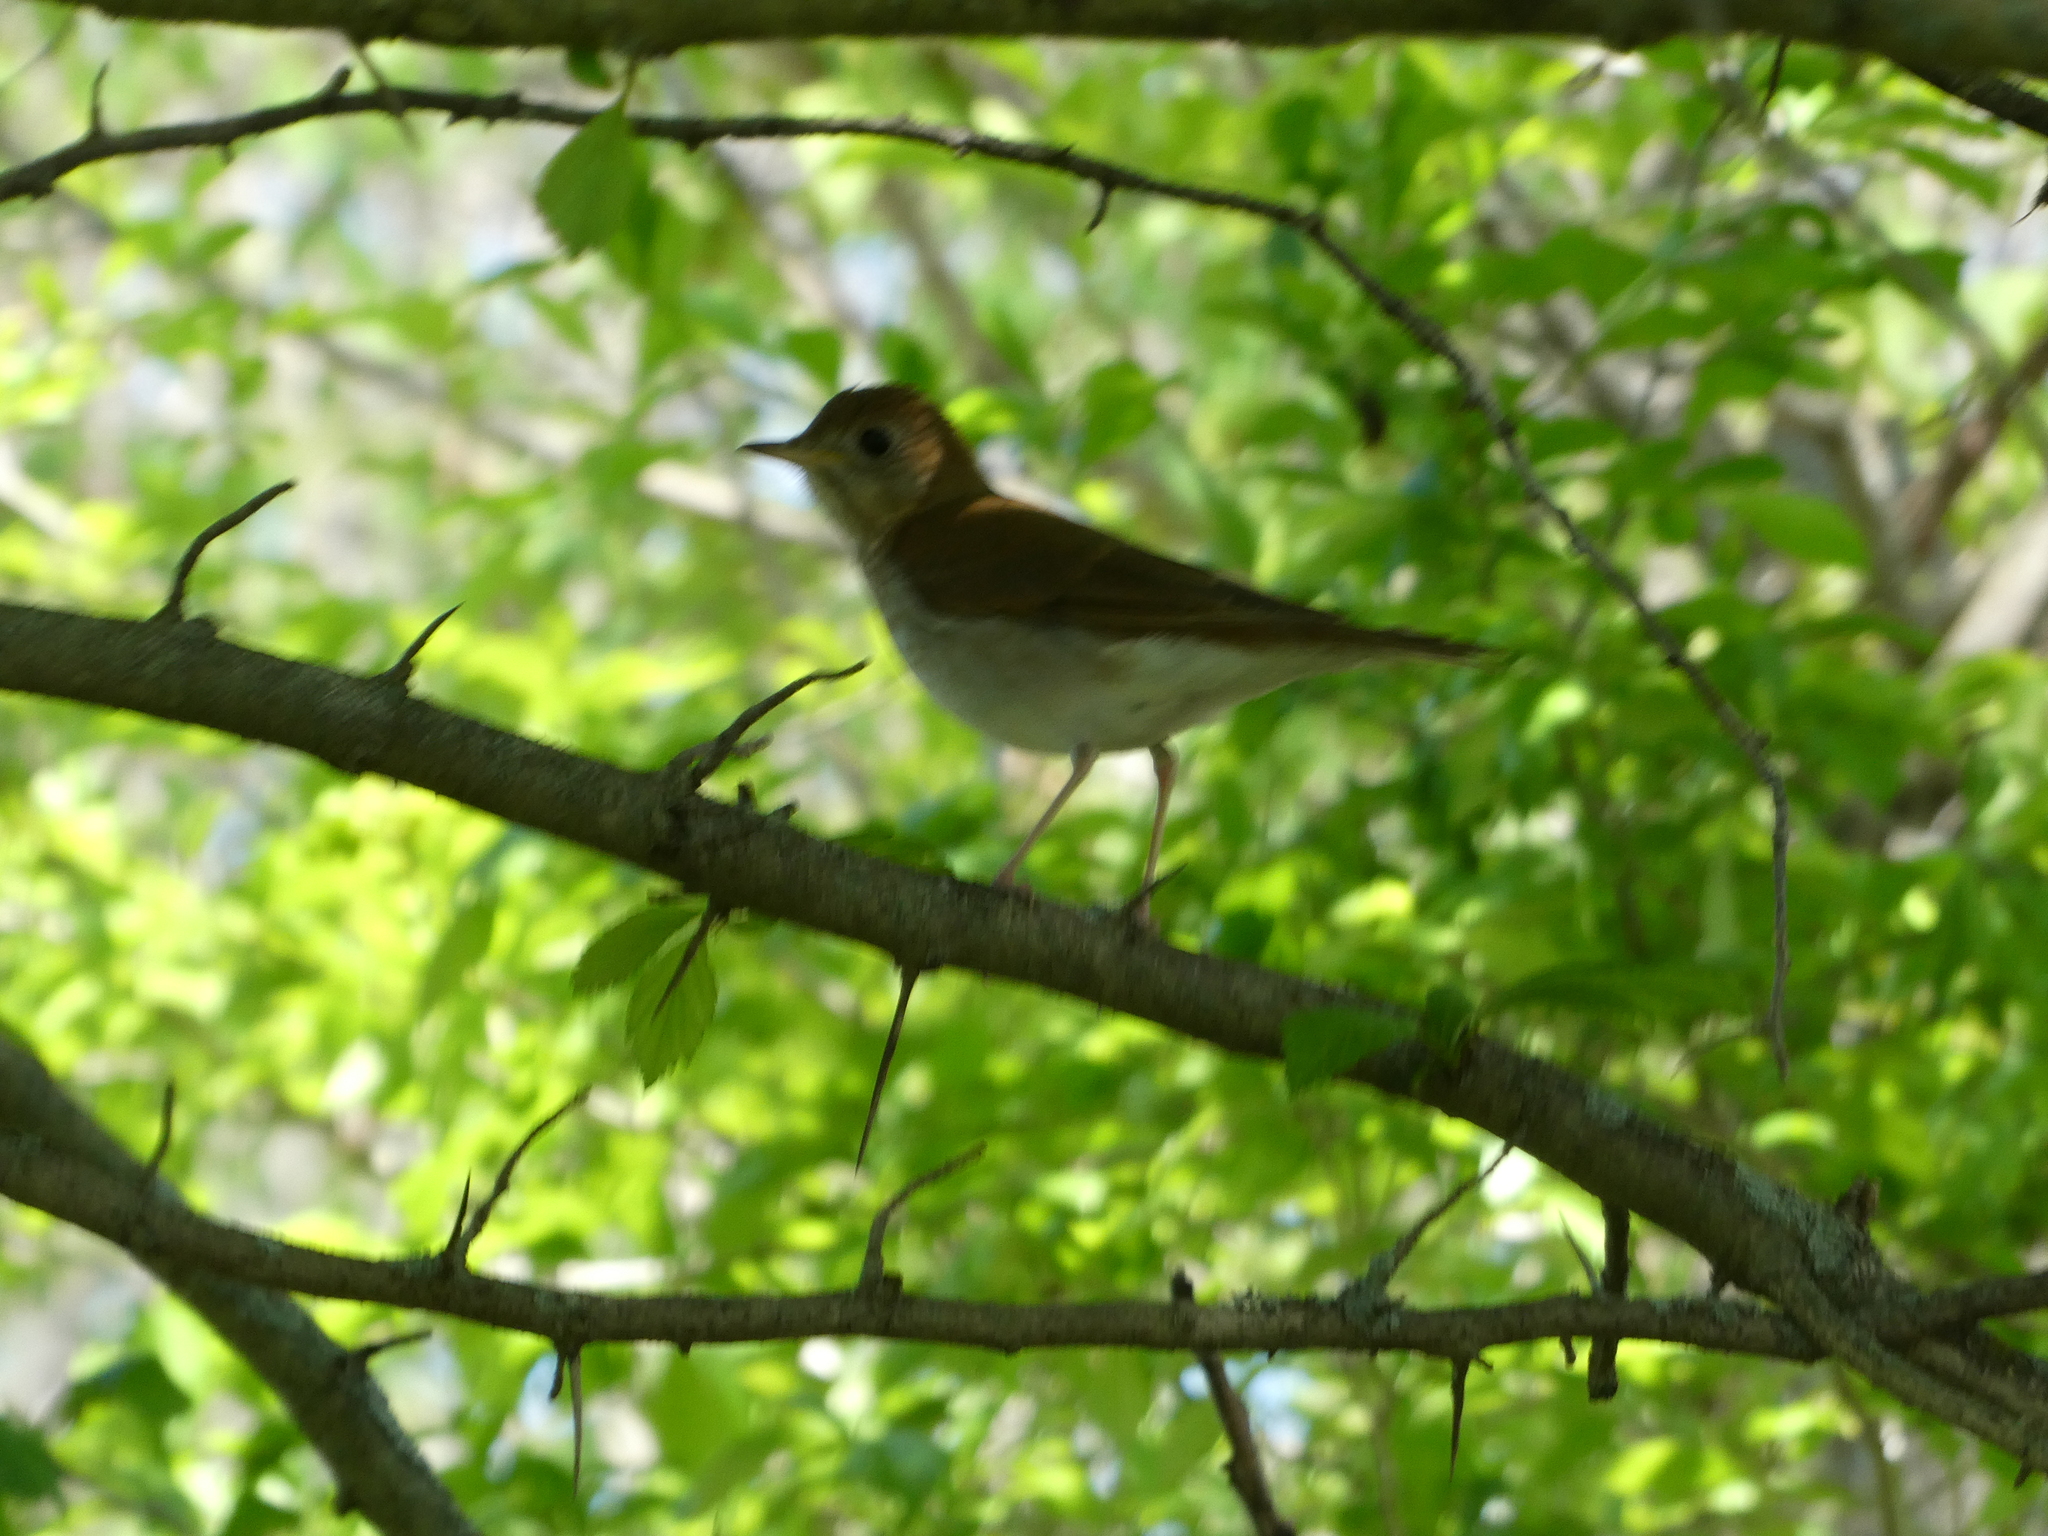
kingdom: Animalia
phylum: Chordata
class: Aves
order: Passeriformes
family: Turdidae
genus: Catharus
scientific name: Catharus fuscescens
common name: Veery
